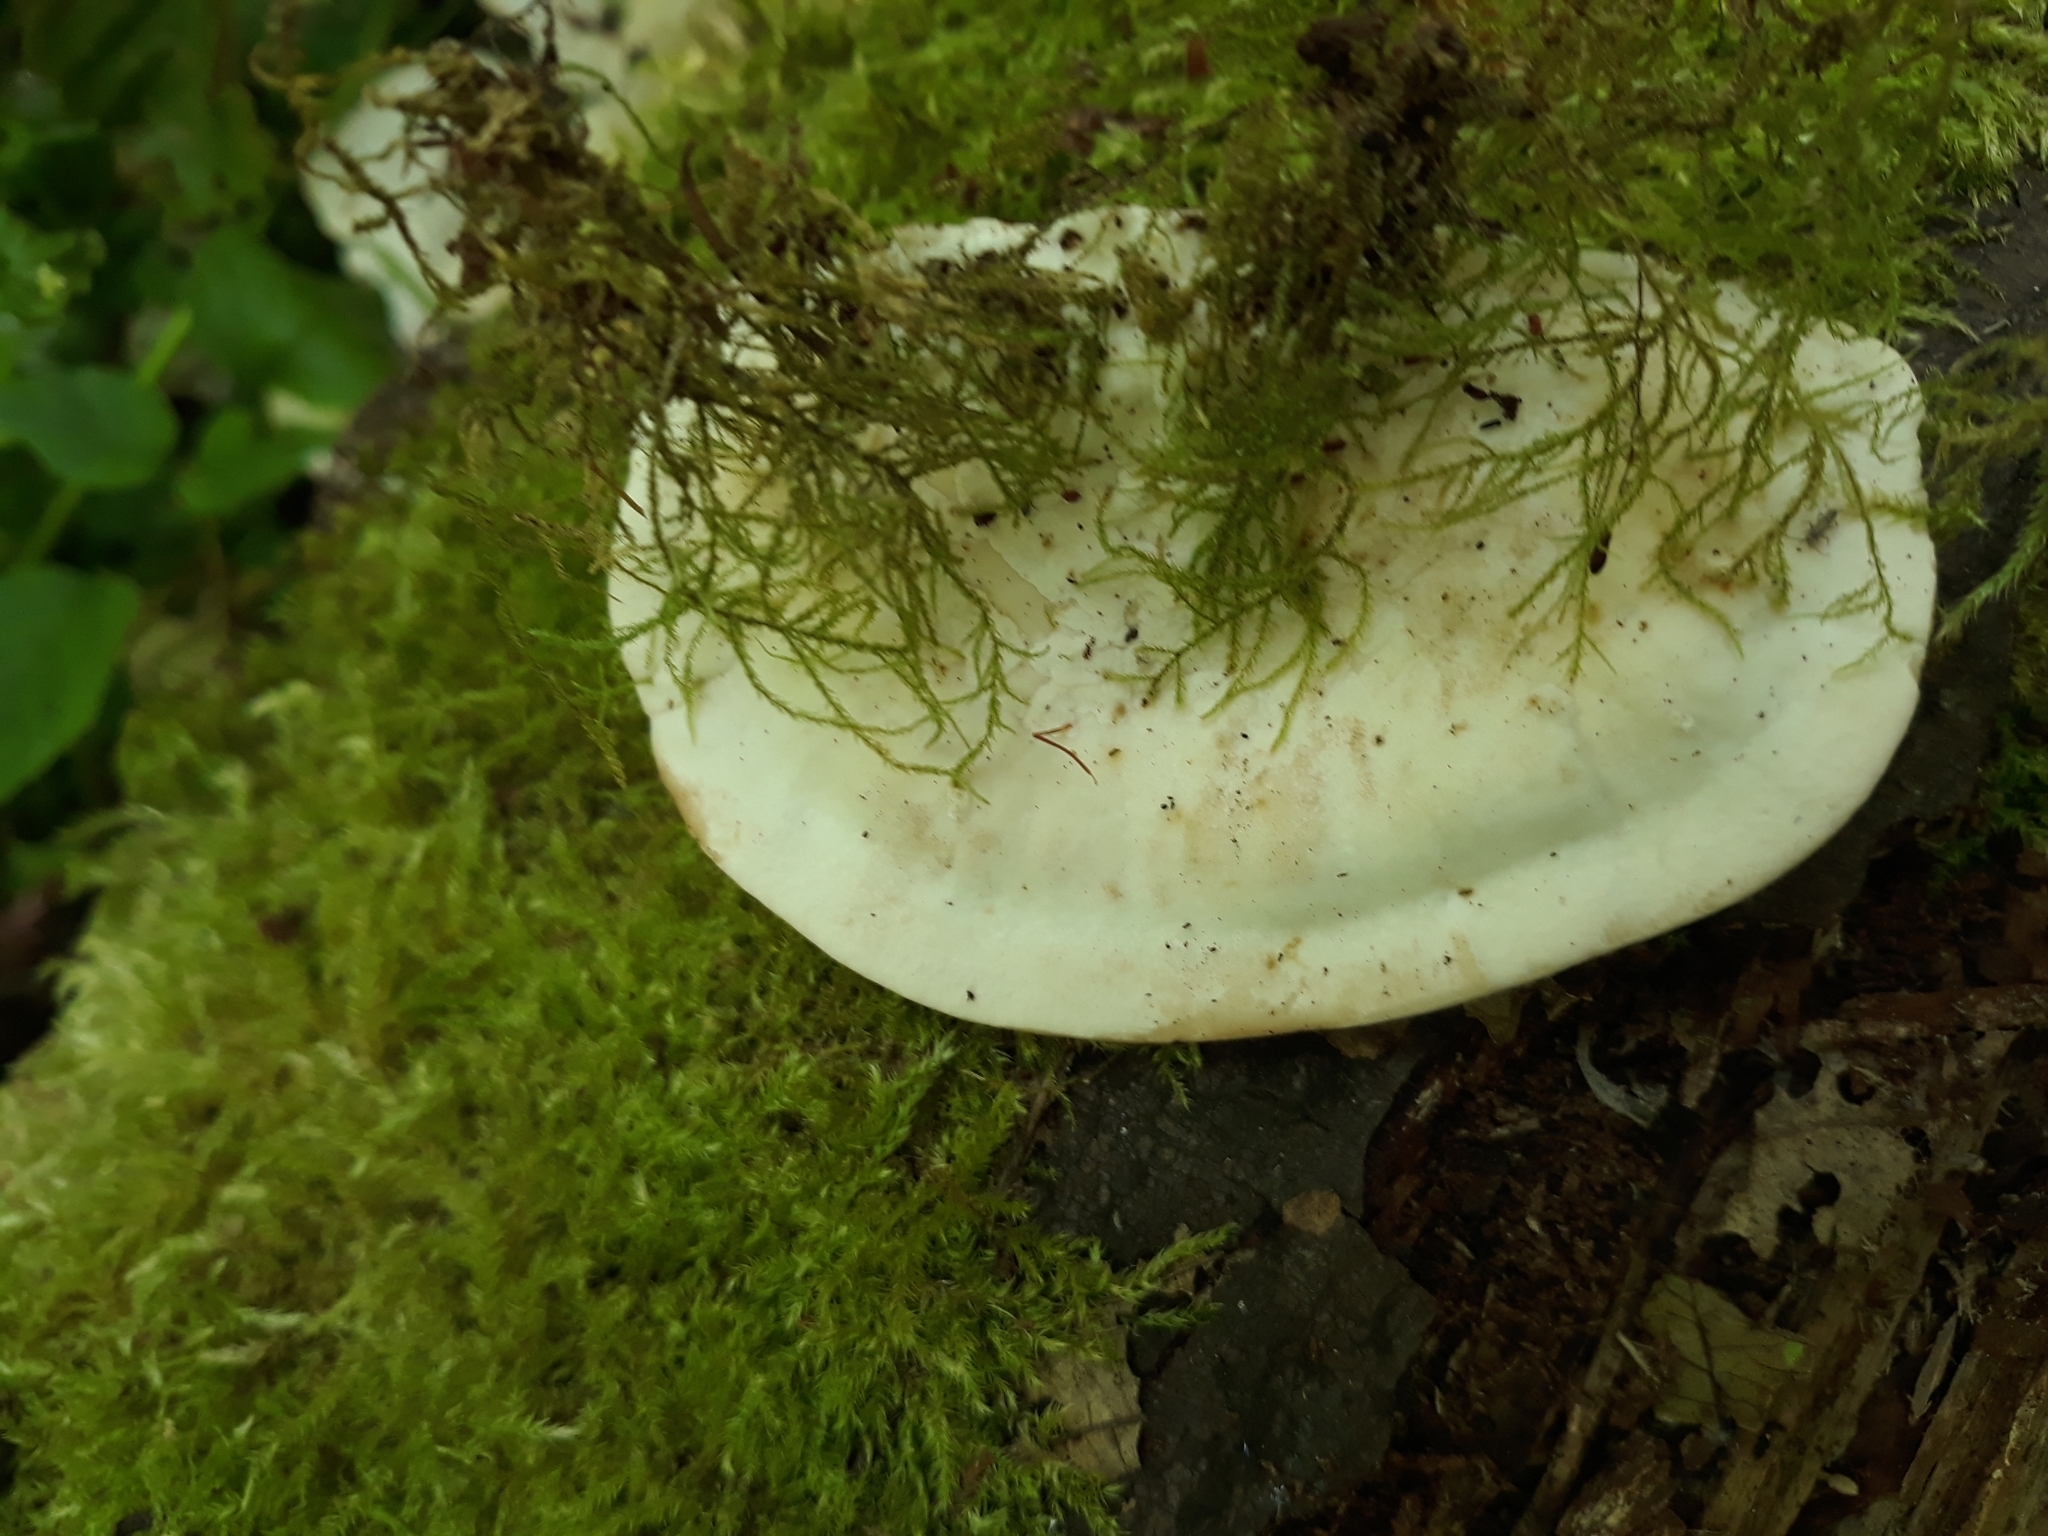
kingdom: Fungi
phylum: Basidiomycota
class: Agaricomycetes
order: Polyporales
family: Polyporaceae
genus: Trametes
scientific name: Trametes gibbosa
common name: Lumpy bracket
